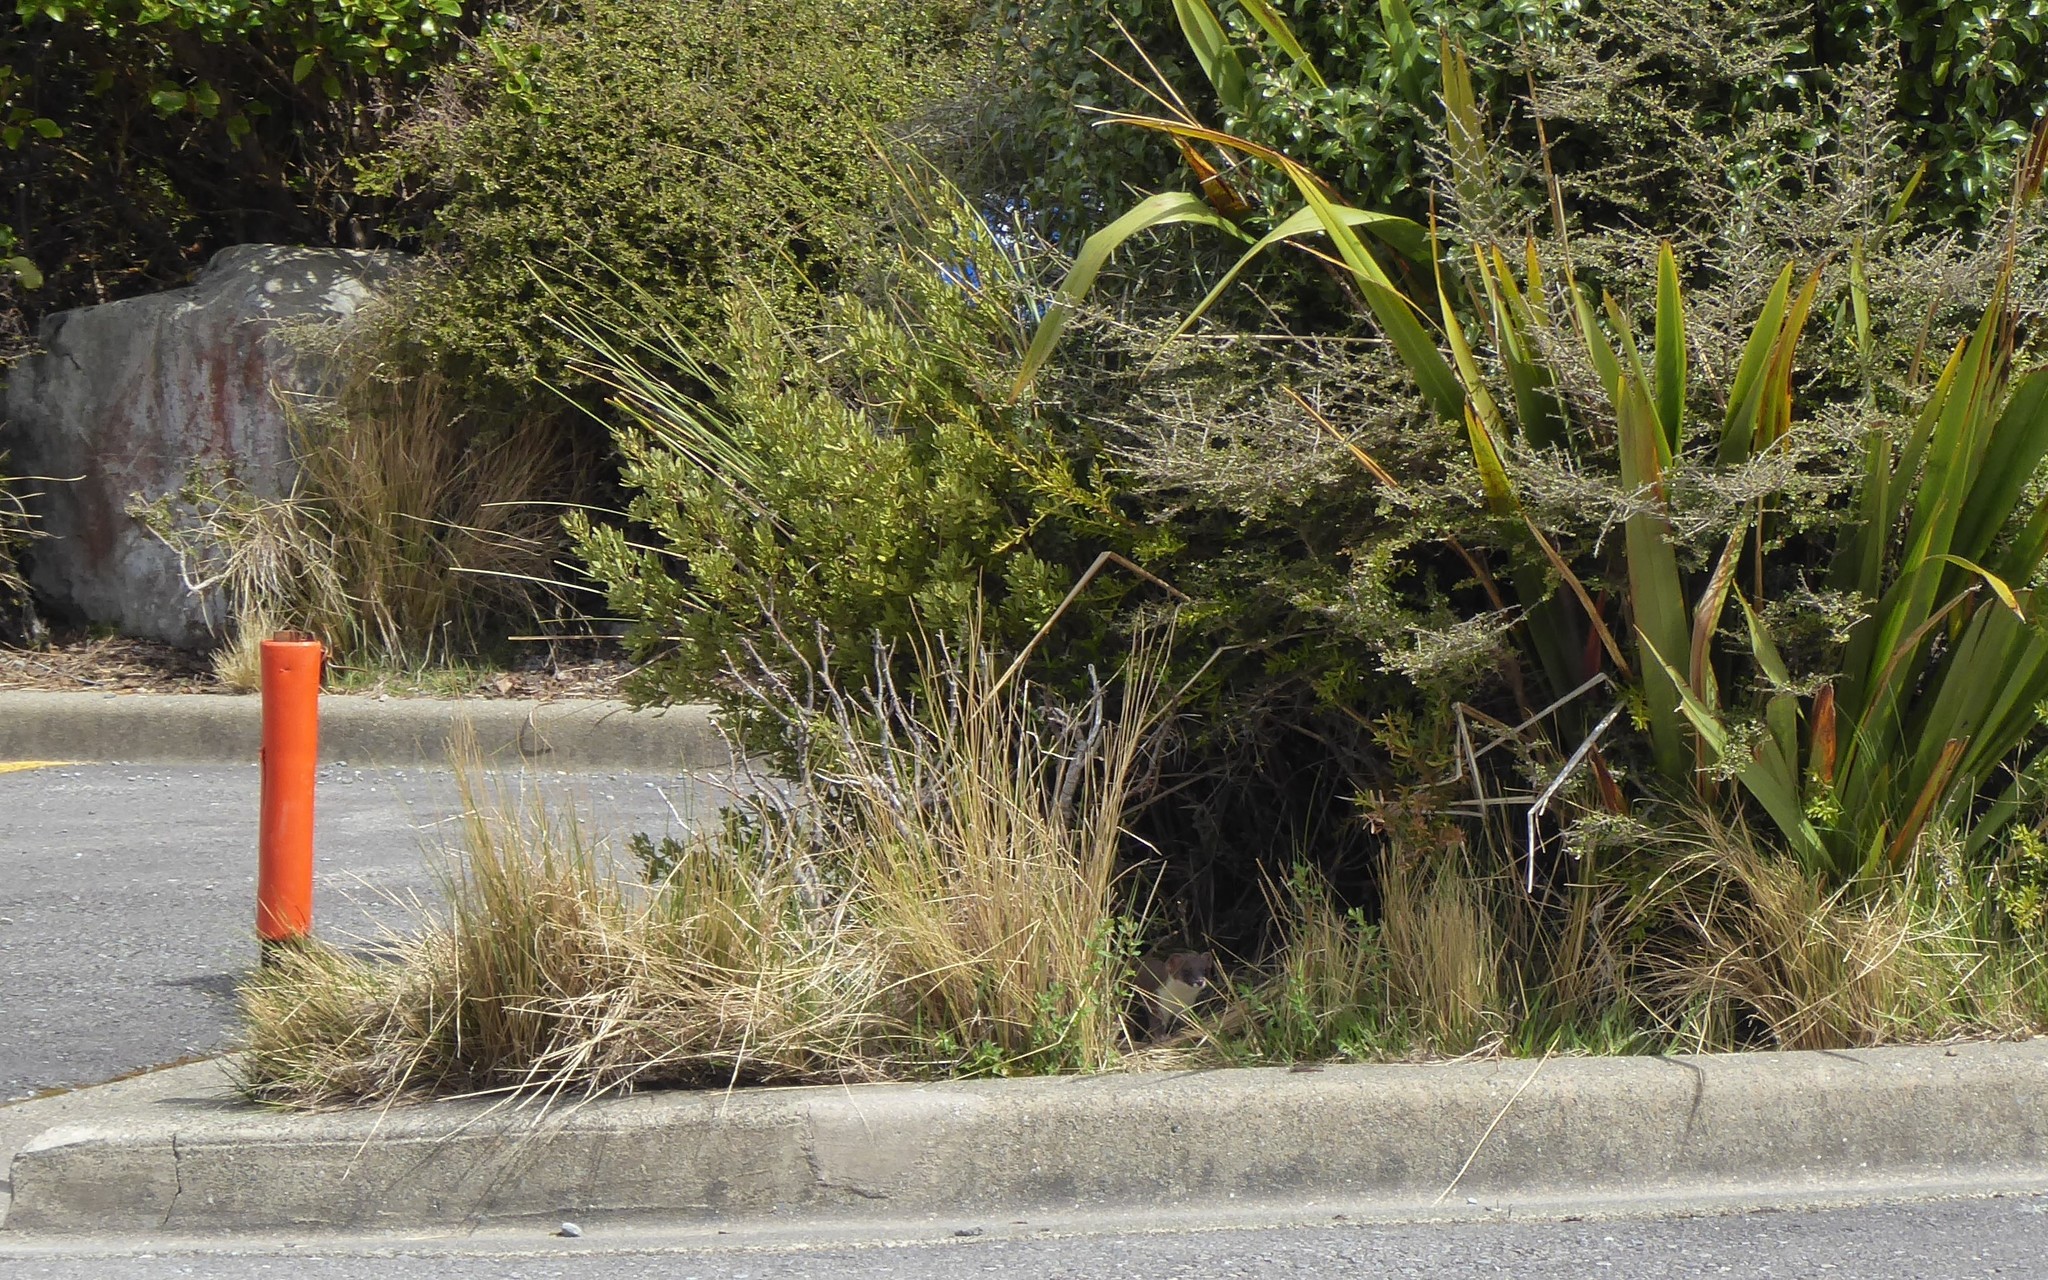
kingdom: Animalia
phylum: Chordata
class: Mammalia
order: Carnivora
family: Mustelidae
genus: Mustela
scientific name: Mustela erminea
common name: Stoat
